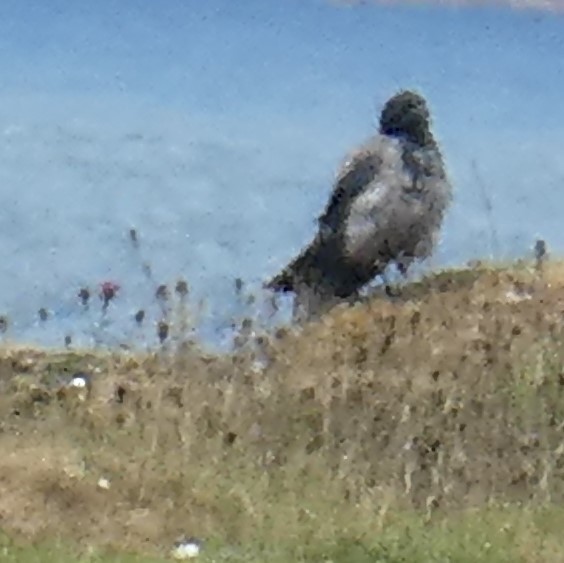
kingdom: Animalia
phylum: Chordata
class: Aves
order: Passeriformes
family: Corvidae
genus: Corvus
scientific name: Corvus cornix
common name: Hooded crow
